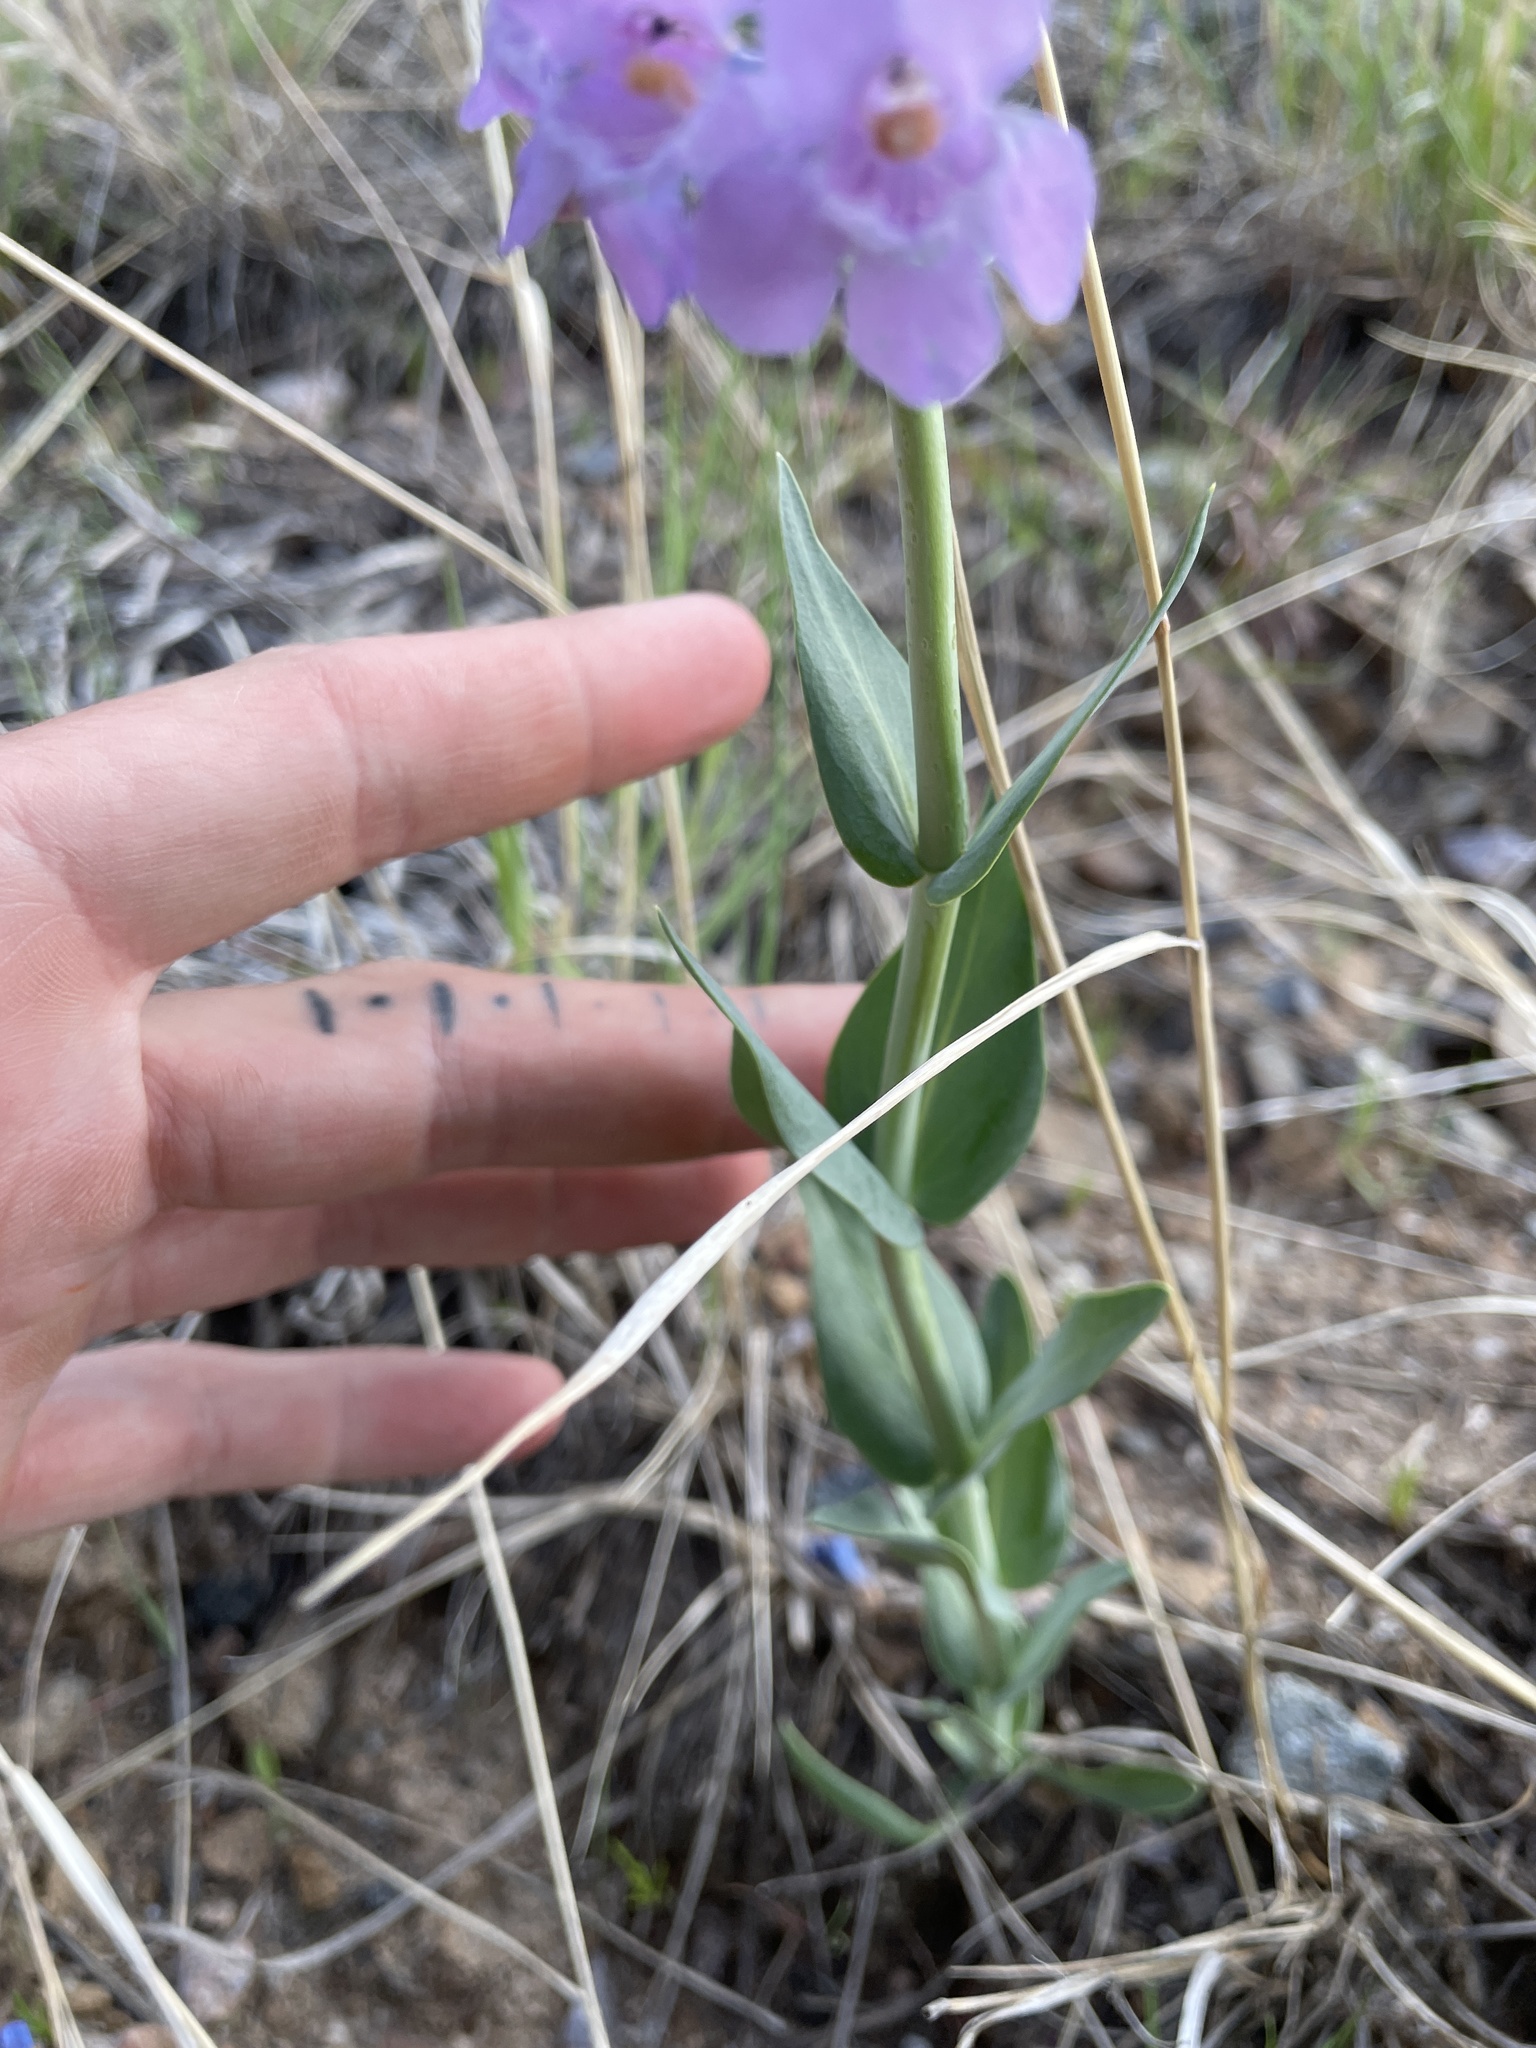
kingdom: Plantae
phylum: Tracheophyta
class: Magnoliopsida
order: Lamiales
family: Plantaginaceae
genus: Penstemon
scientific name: Penstemon secundiflorus
